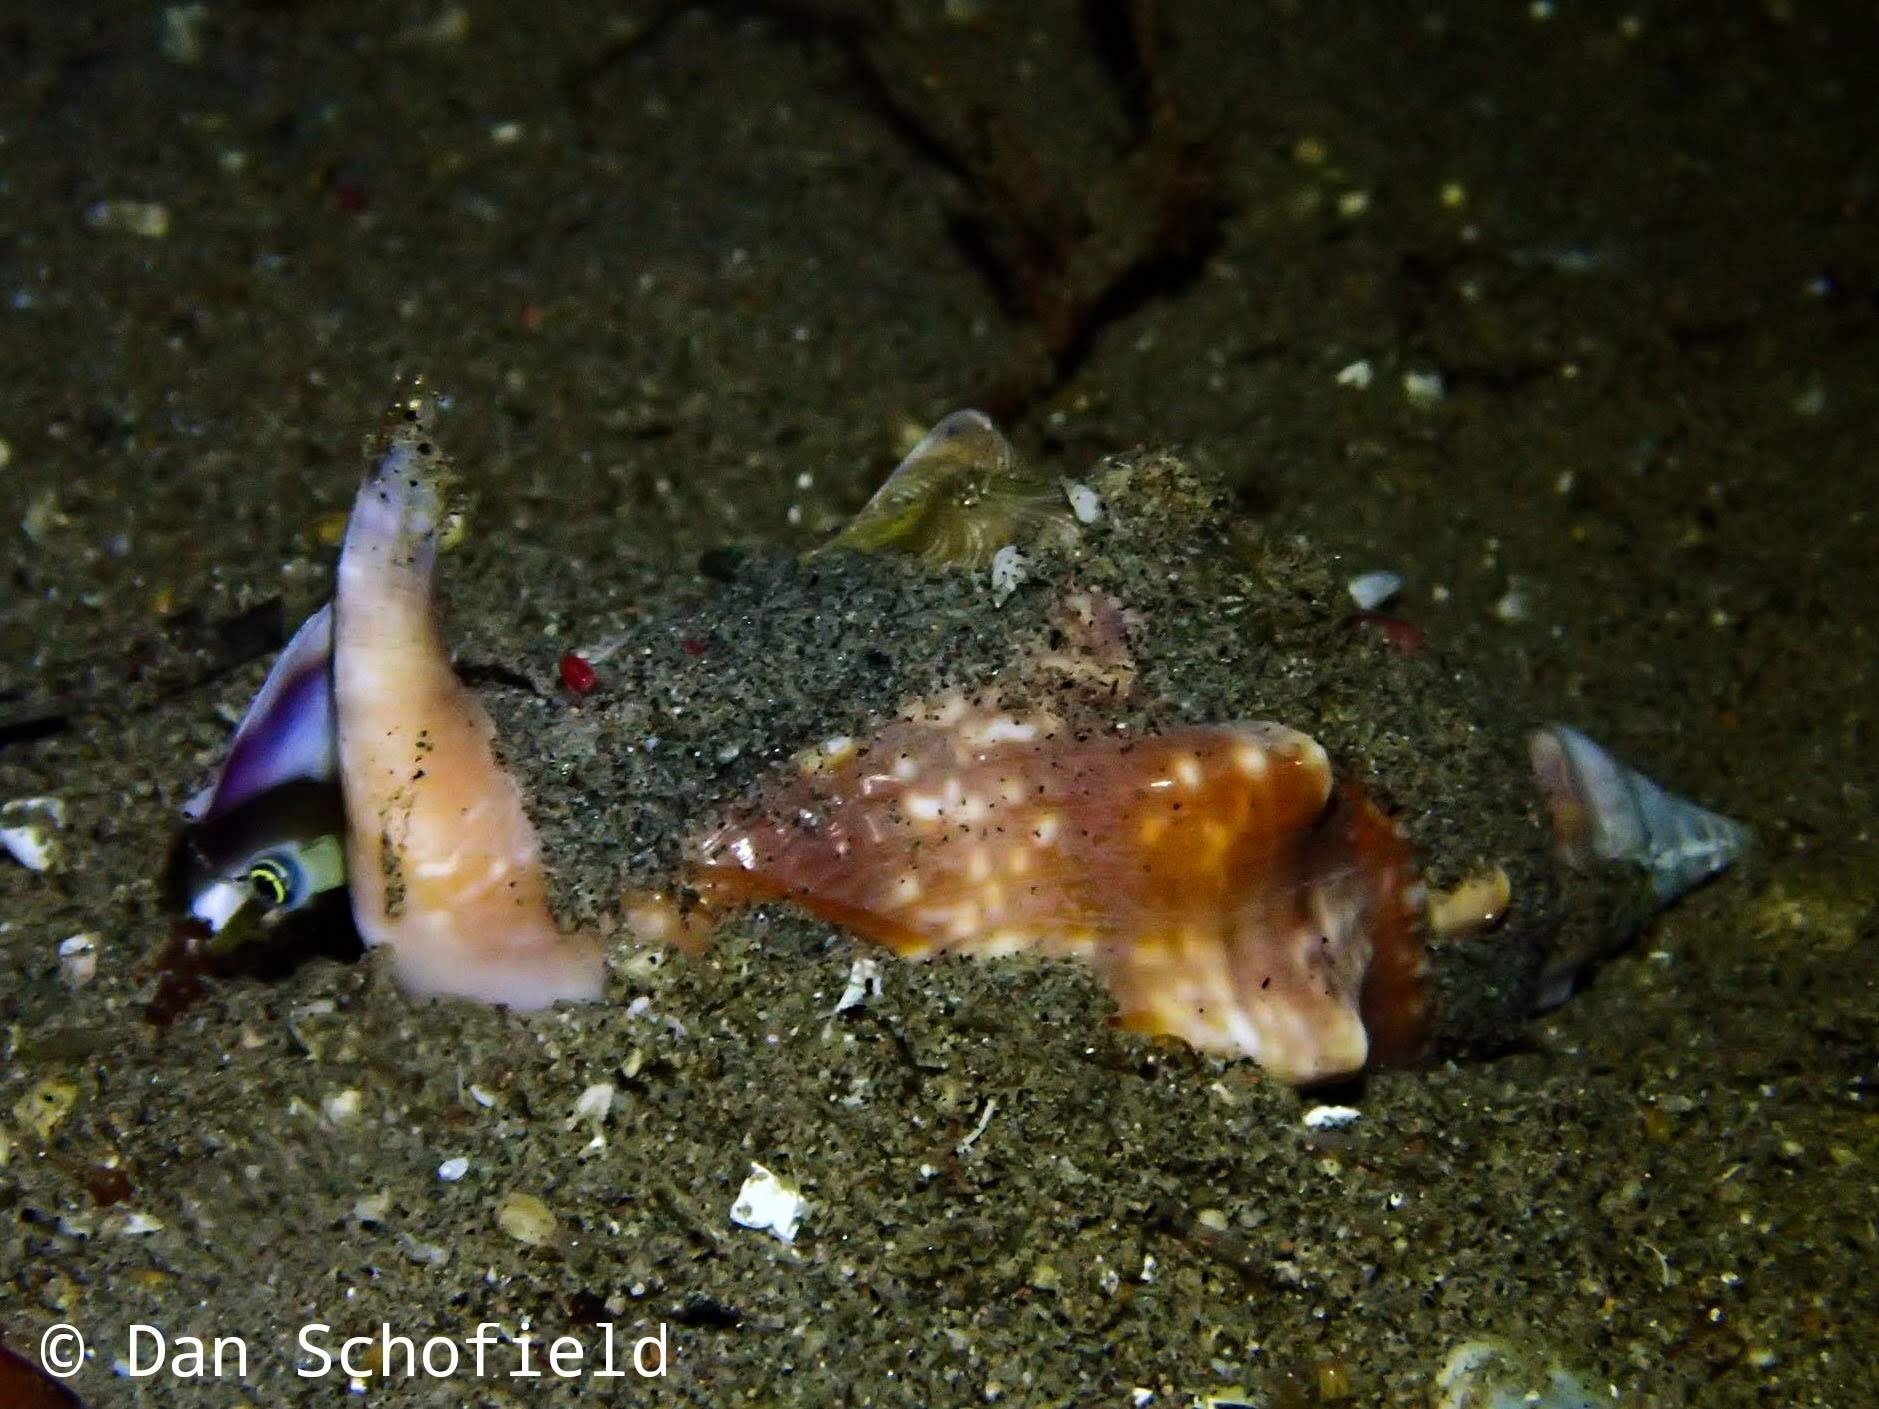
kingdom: Animalia
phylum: Mollusca
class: Gastropoda
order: Littorinimorpha
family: Strombidae
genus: Euprotomus
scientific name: Euprotomus bulla
